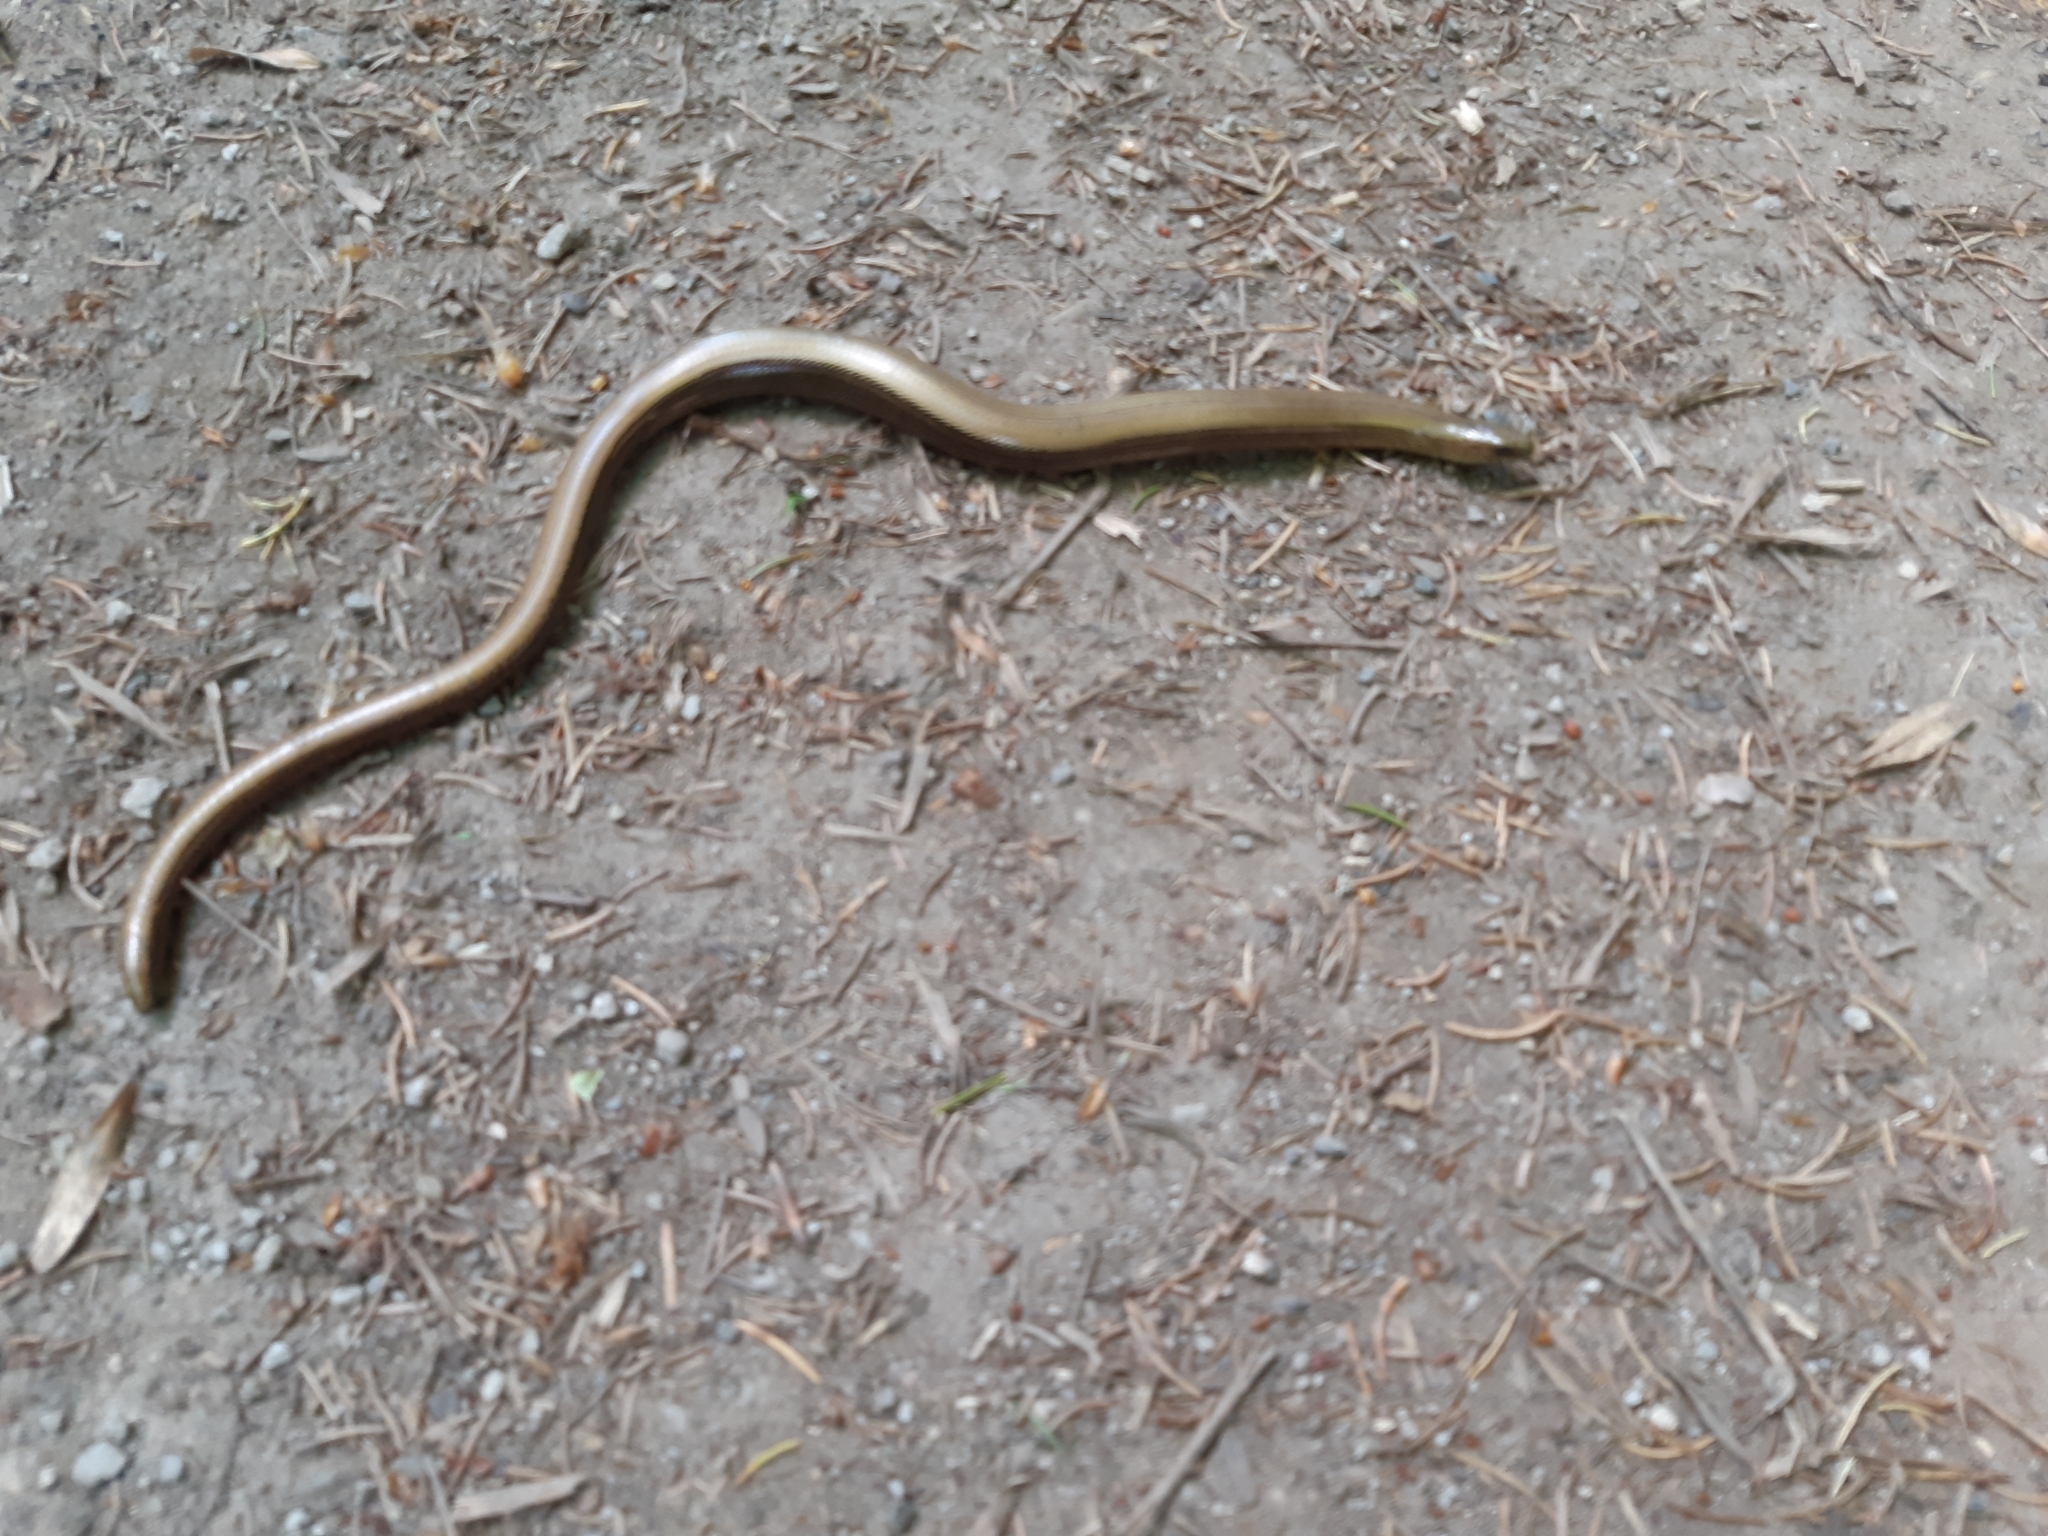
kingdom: Animalia
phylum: Chordata
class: Squamata
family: Anguidae
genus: Anguis
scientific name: Anguis colchica
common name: Slow worm
